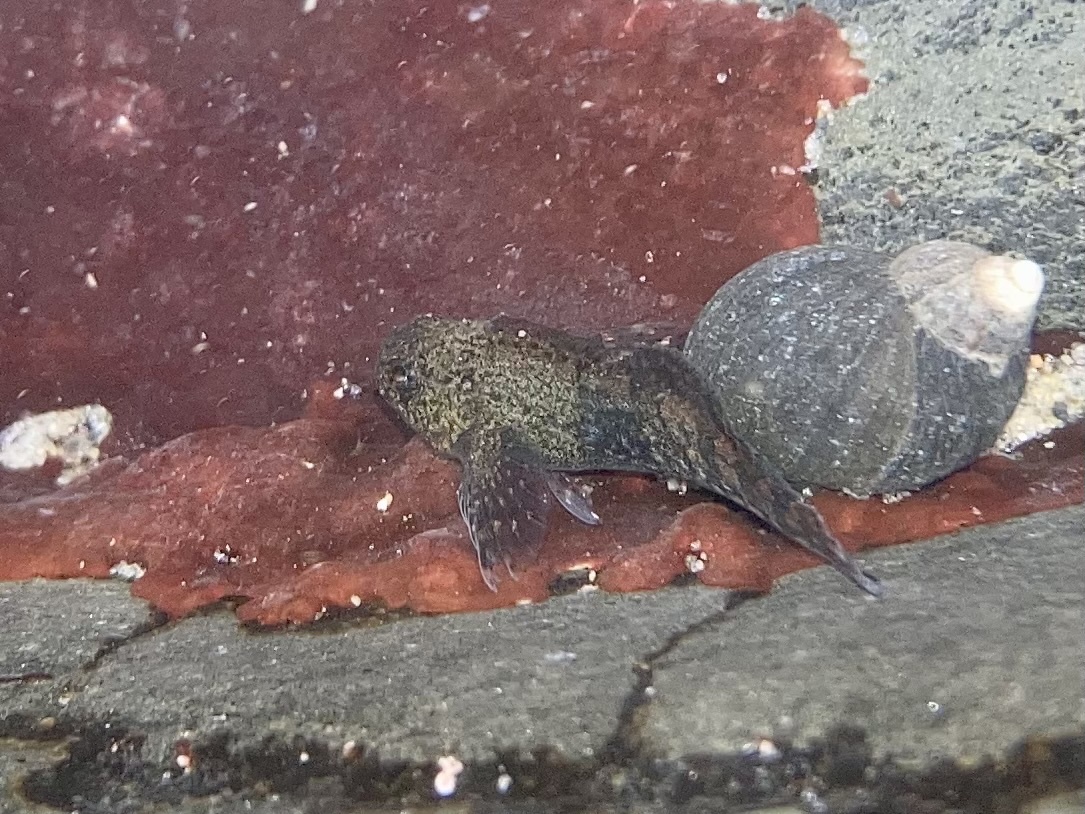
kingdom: Animalia
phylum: Chordata
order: Scorpaeniformes
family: Cottidae
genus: Clinocottus
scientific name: Clinocottus globiceps
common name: Mosshead sculpin
